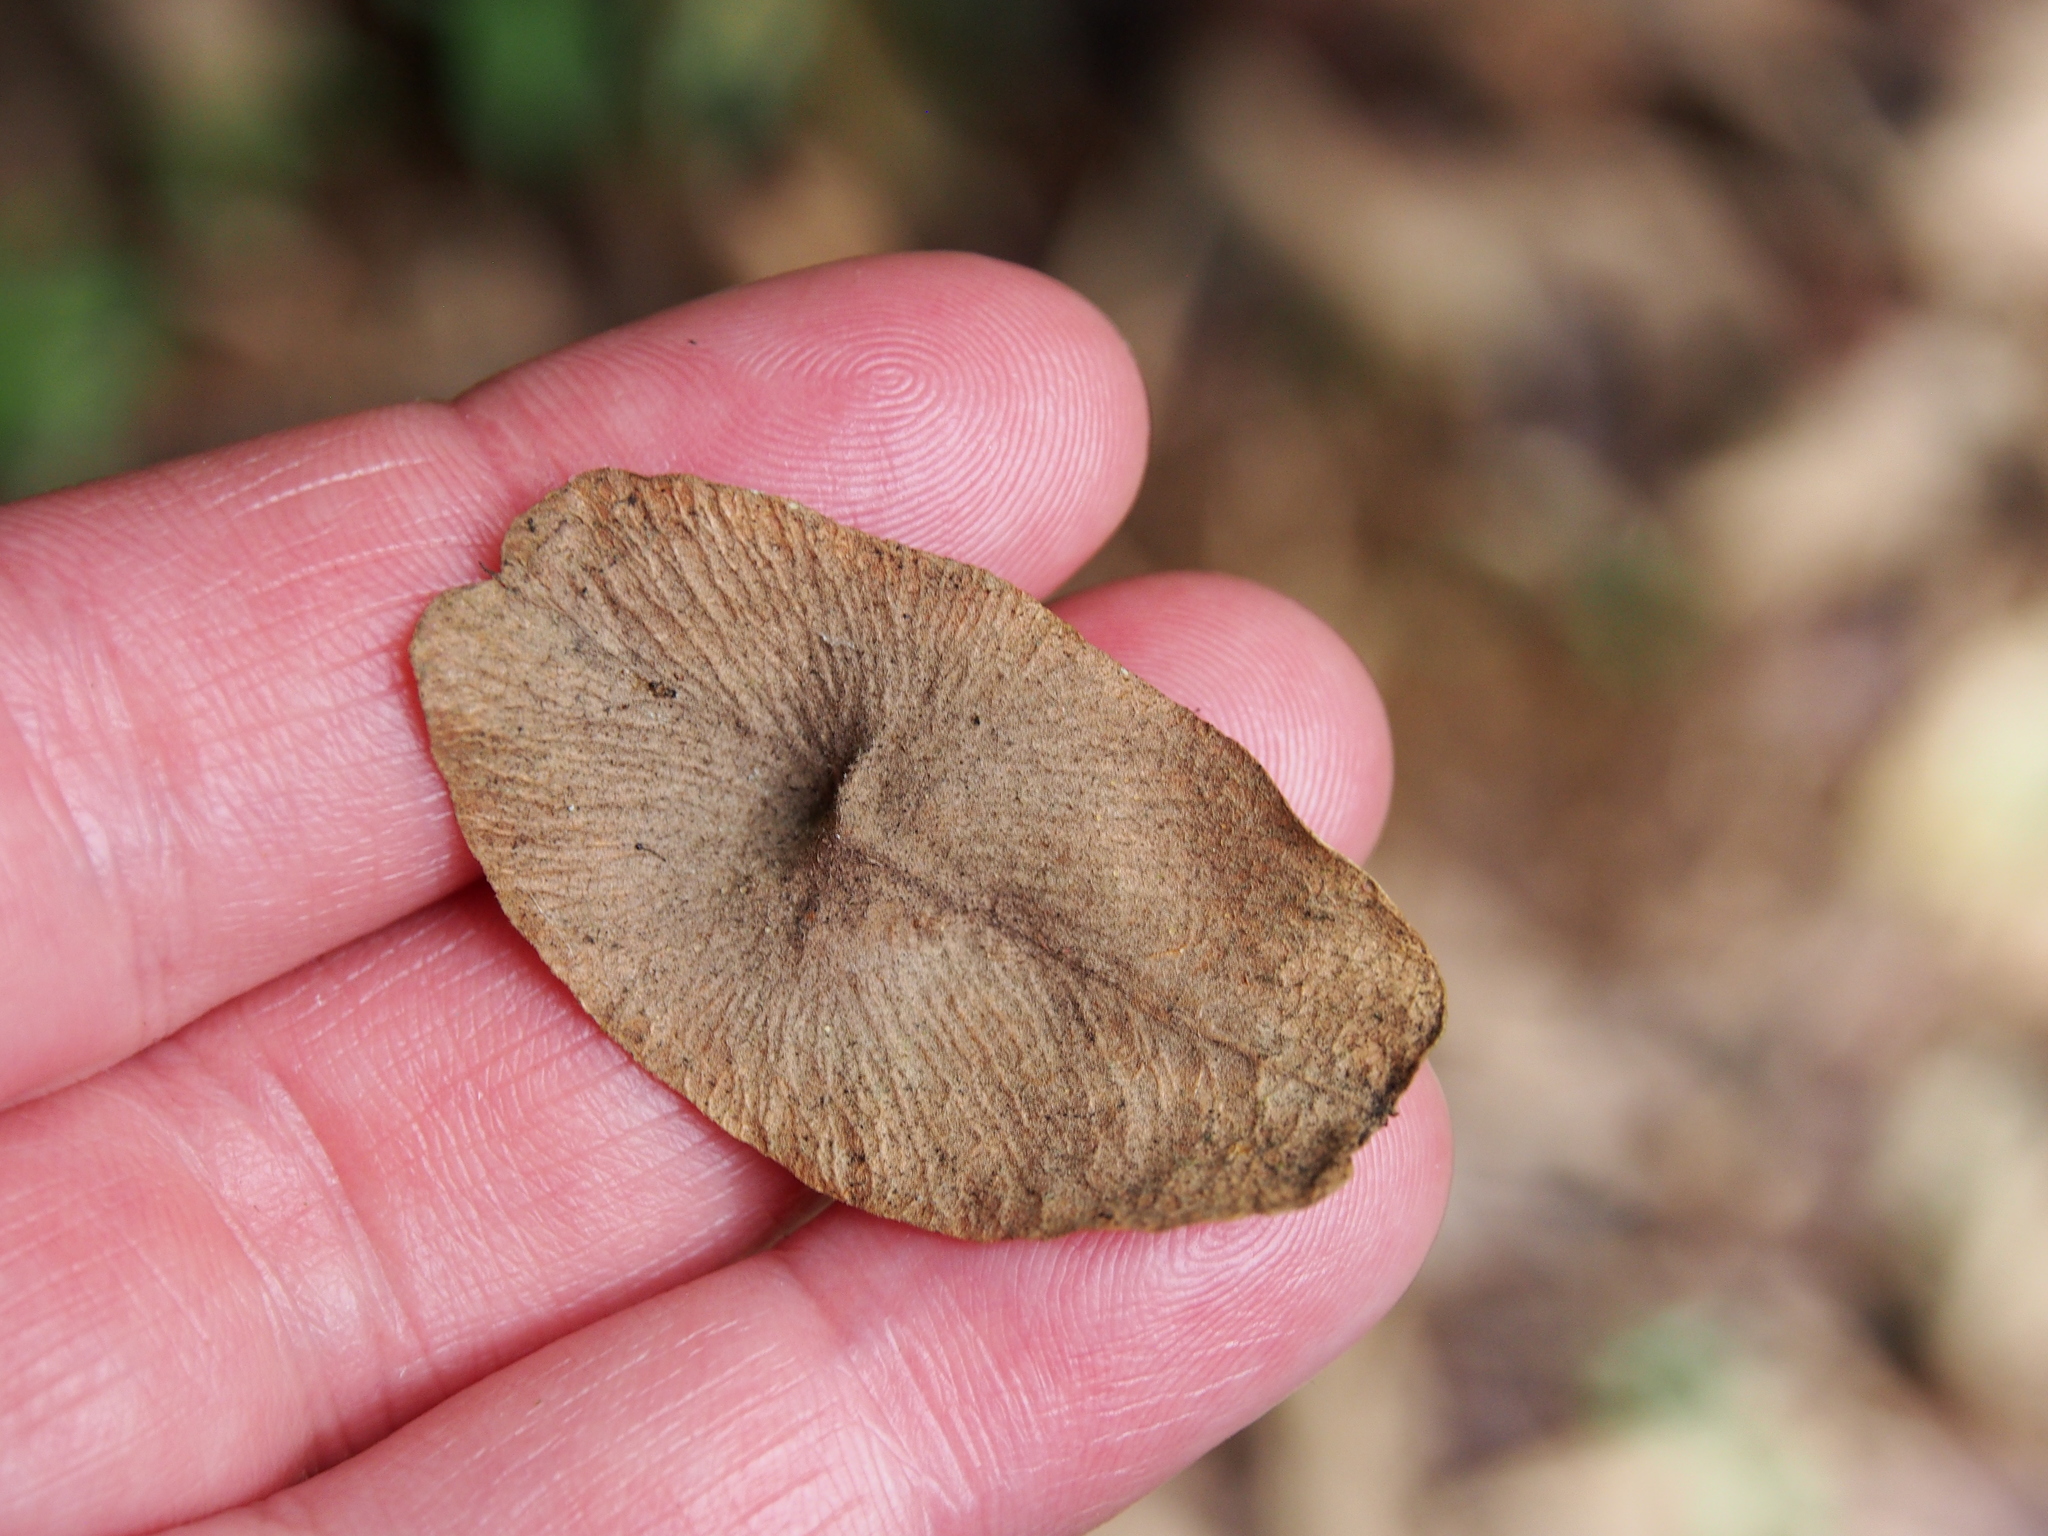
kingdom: Plantae
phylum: Tracheophyta
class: Magnoliopsida
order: Malvales
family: Malvaceae
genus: Goethalsia
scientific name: Goethalsia meiantha
